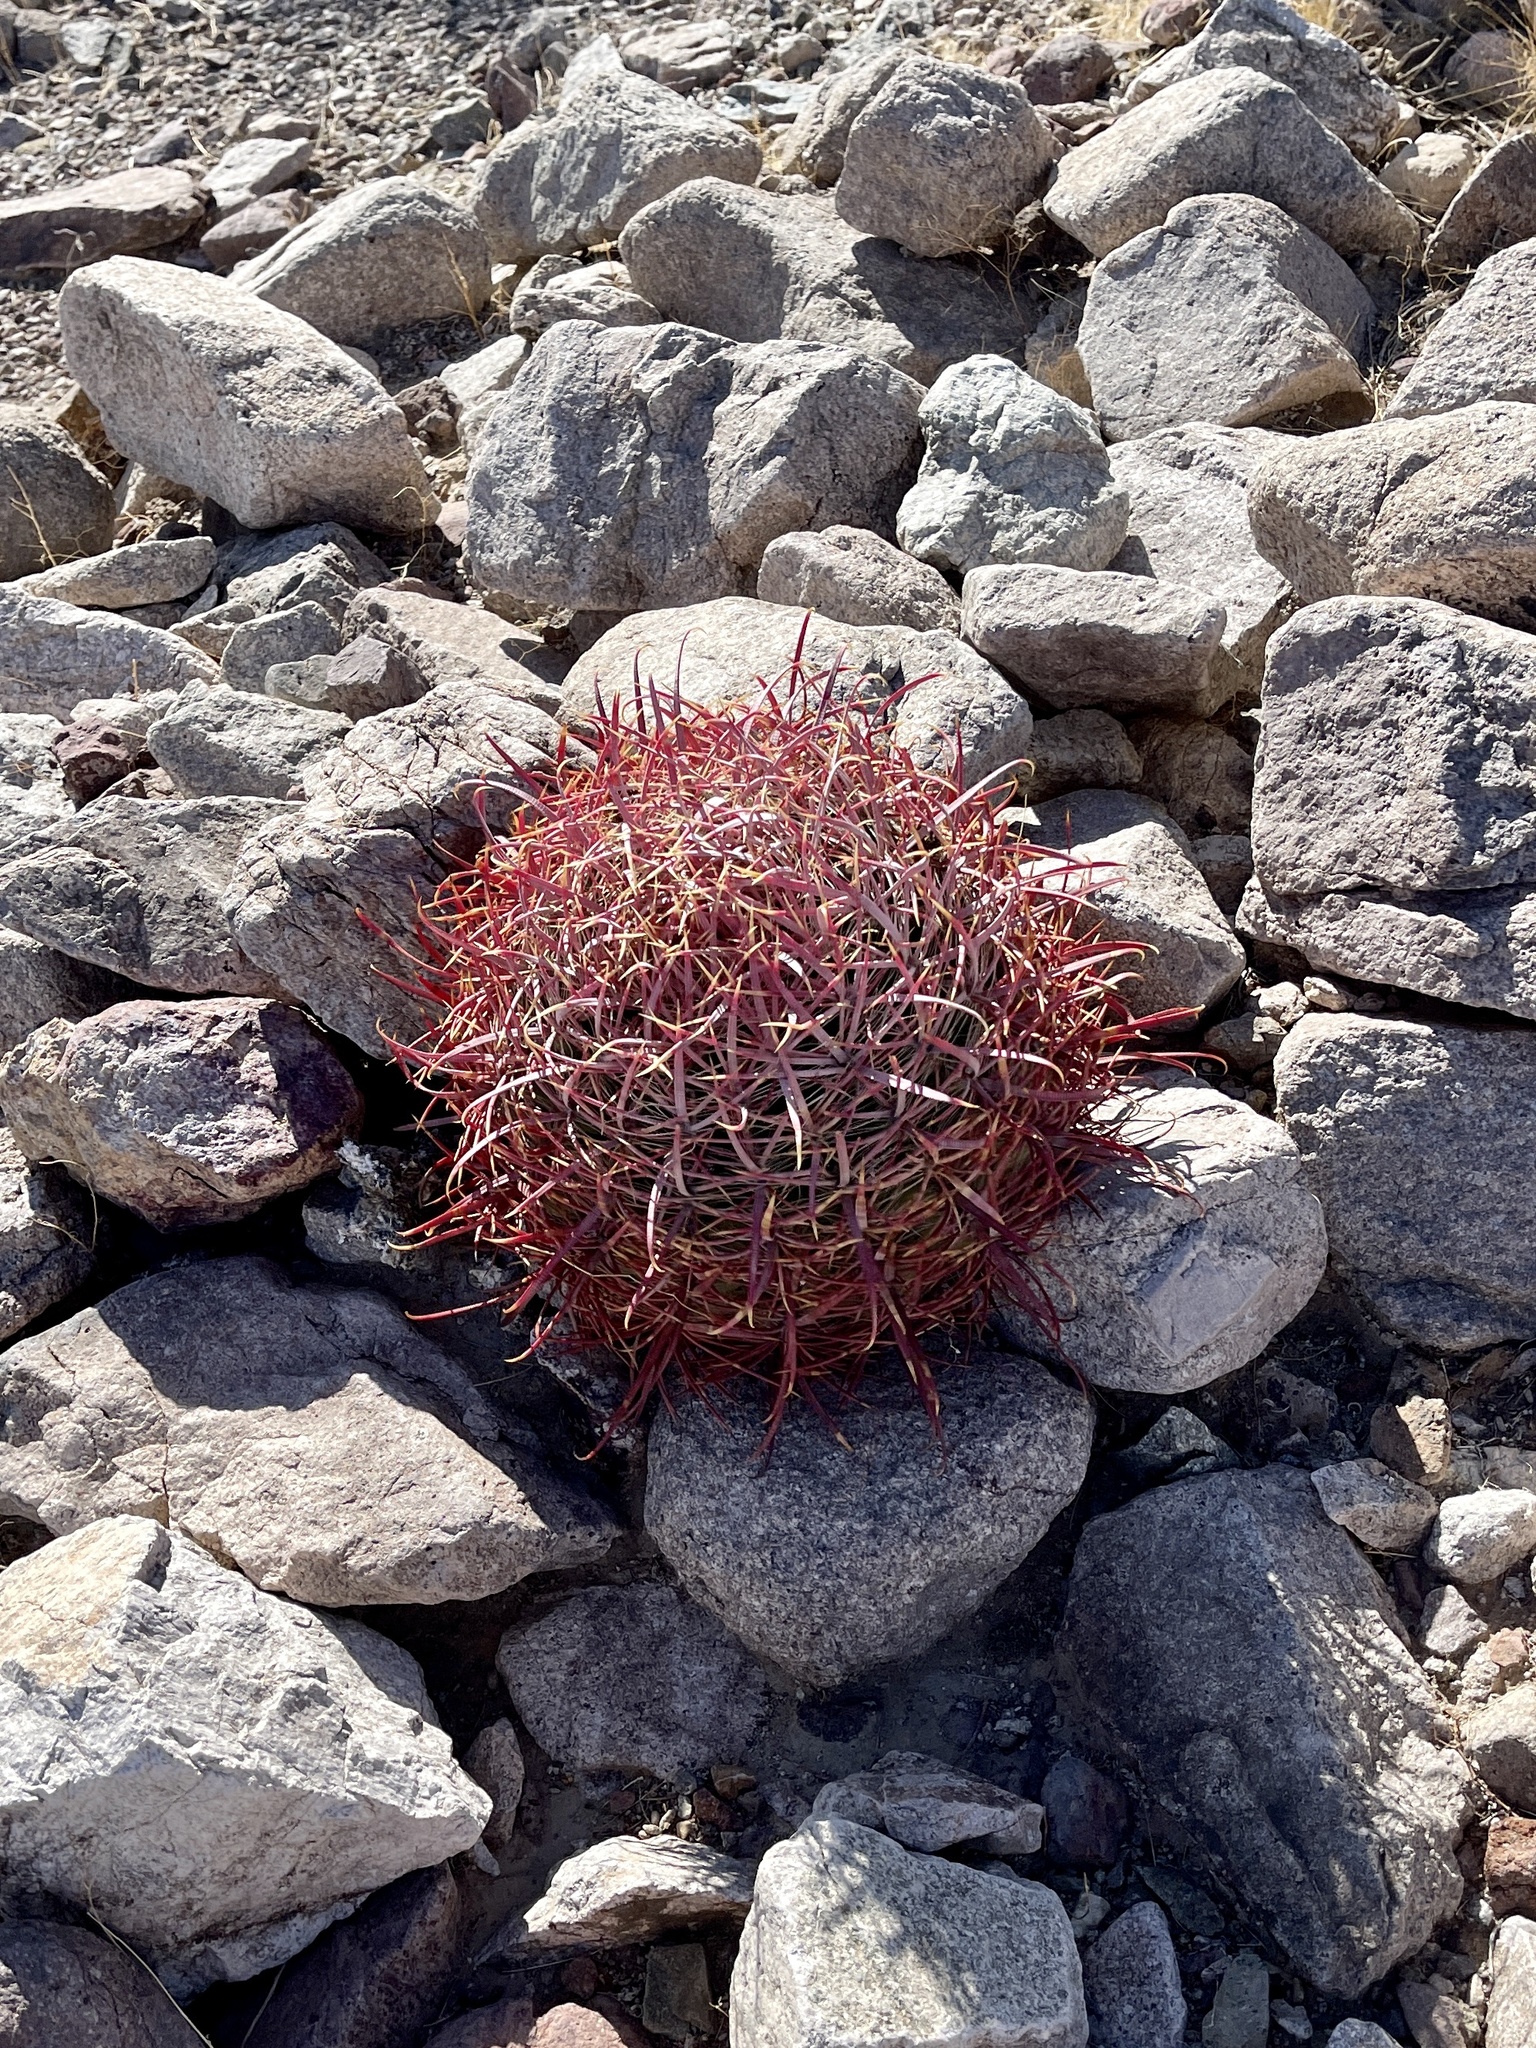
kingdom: Plantae
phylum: Tracheophyta
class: Magnoliopsida
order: Caryophyllales
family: Cactaceae
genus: Ferocactus
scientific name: Ferocactus cylindraceus
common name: California barrel cactus
